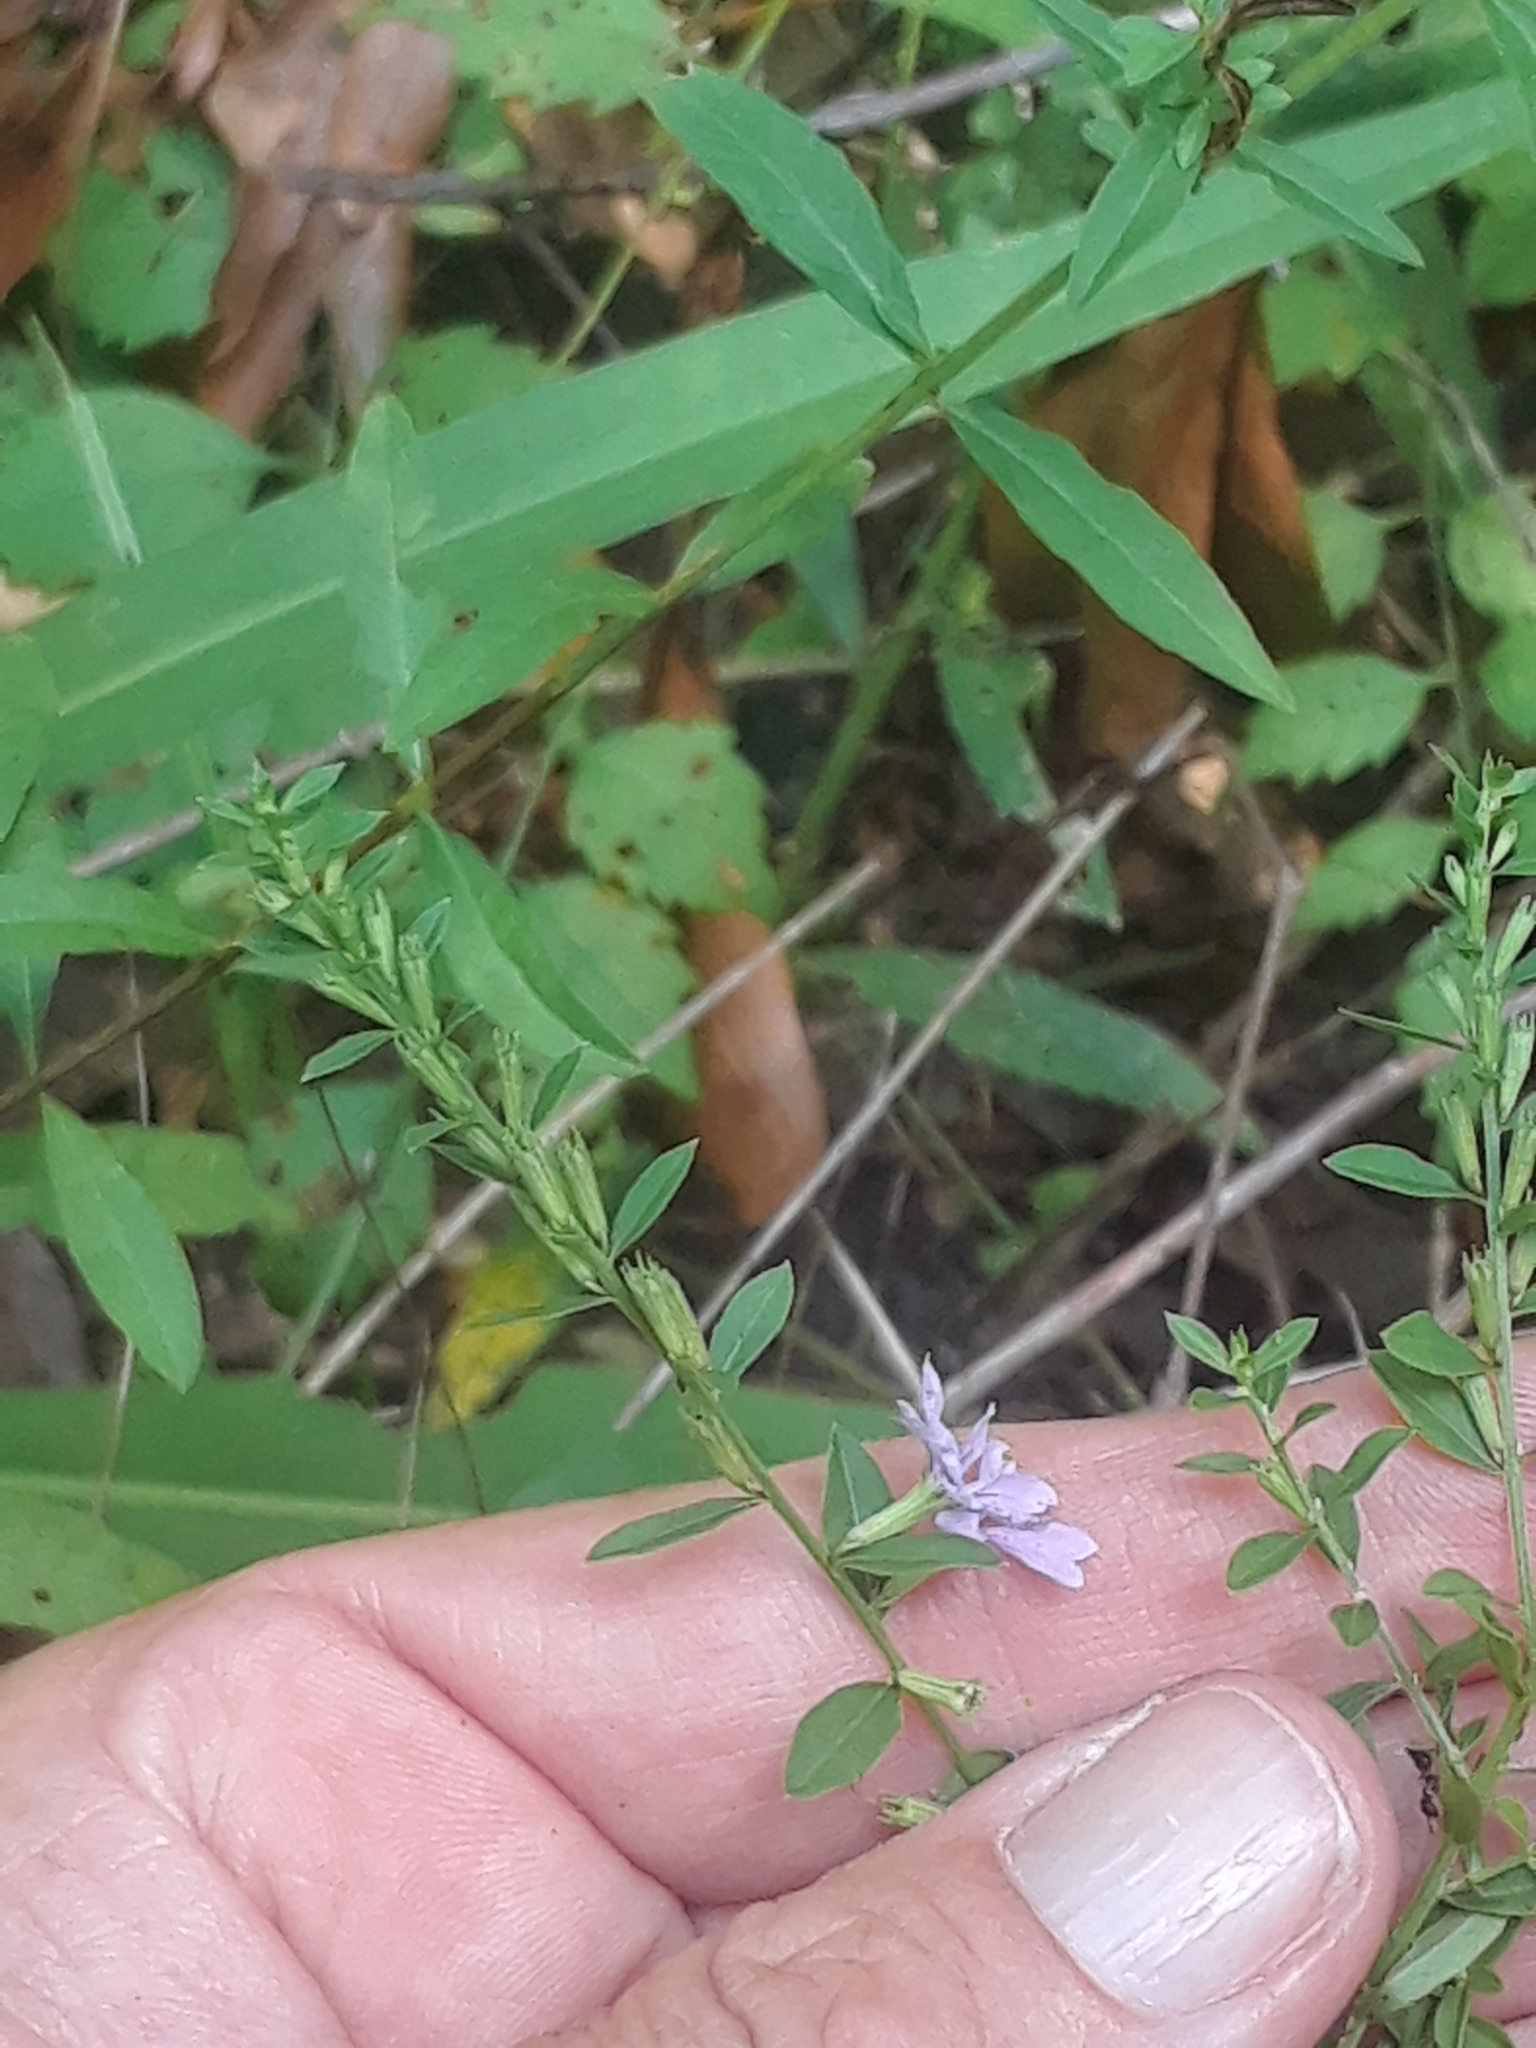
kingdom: Plantae
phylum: Tracheophyta
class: Magnoliopsida
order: Myrtales
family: Lythraceae
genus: Lythrum
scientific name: Lythrum alatum
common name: Winged loosestrife
